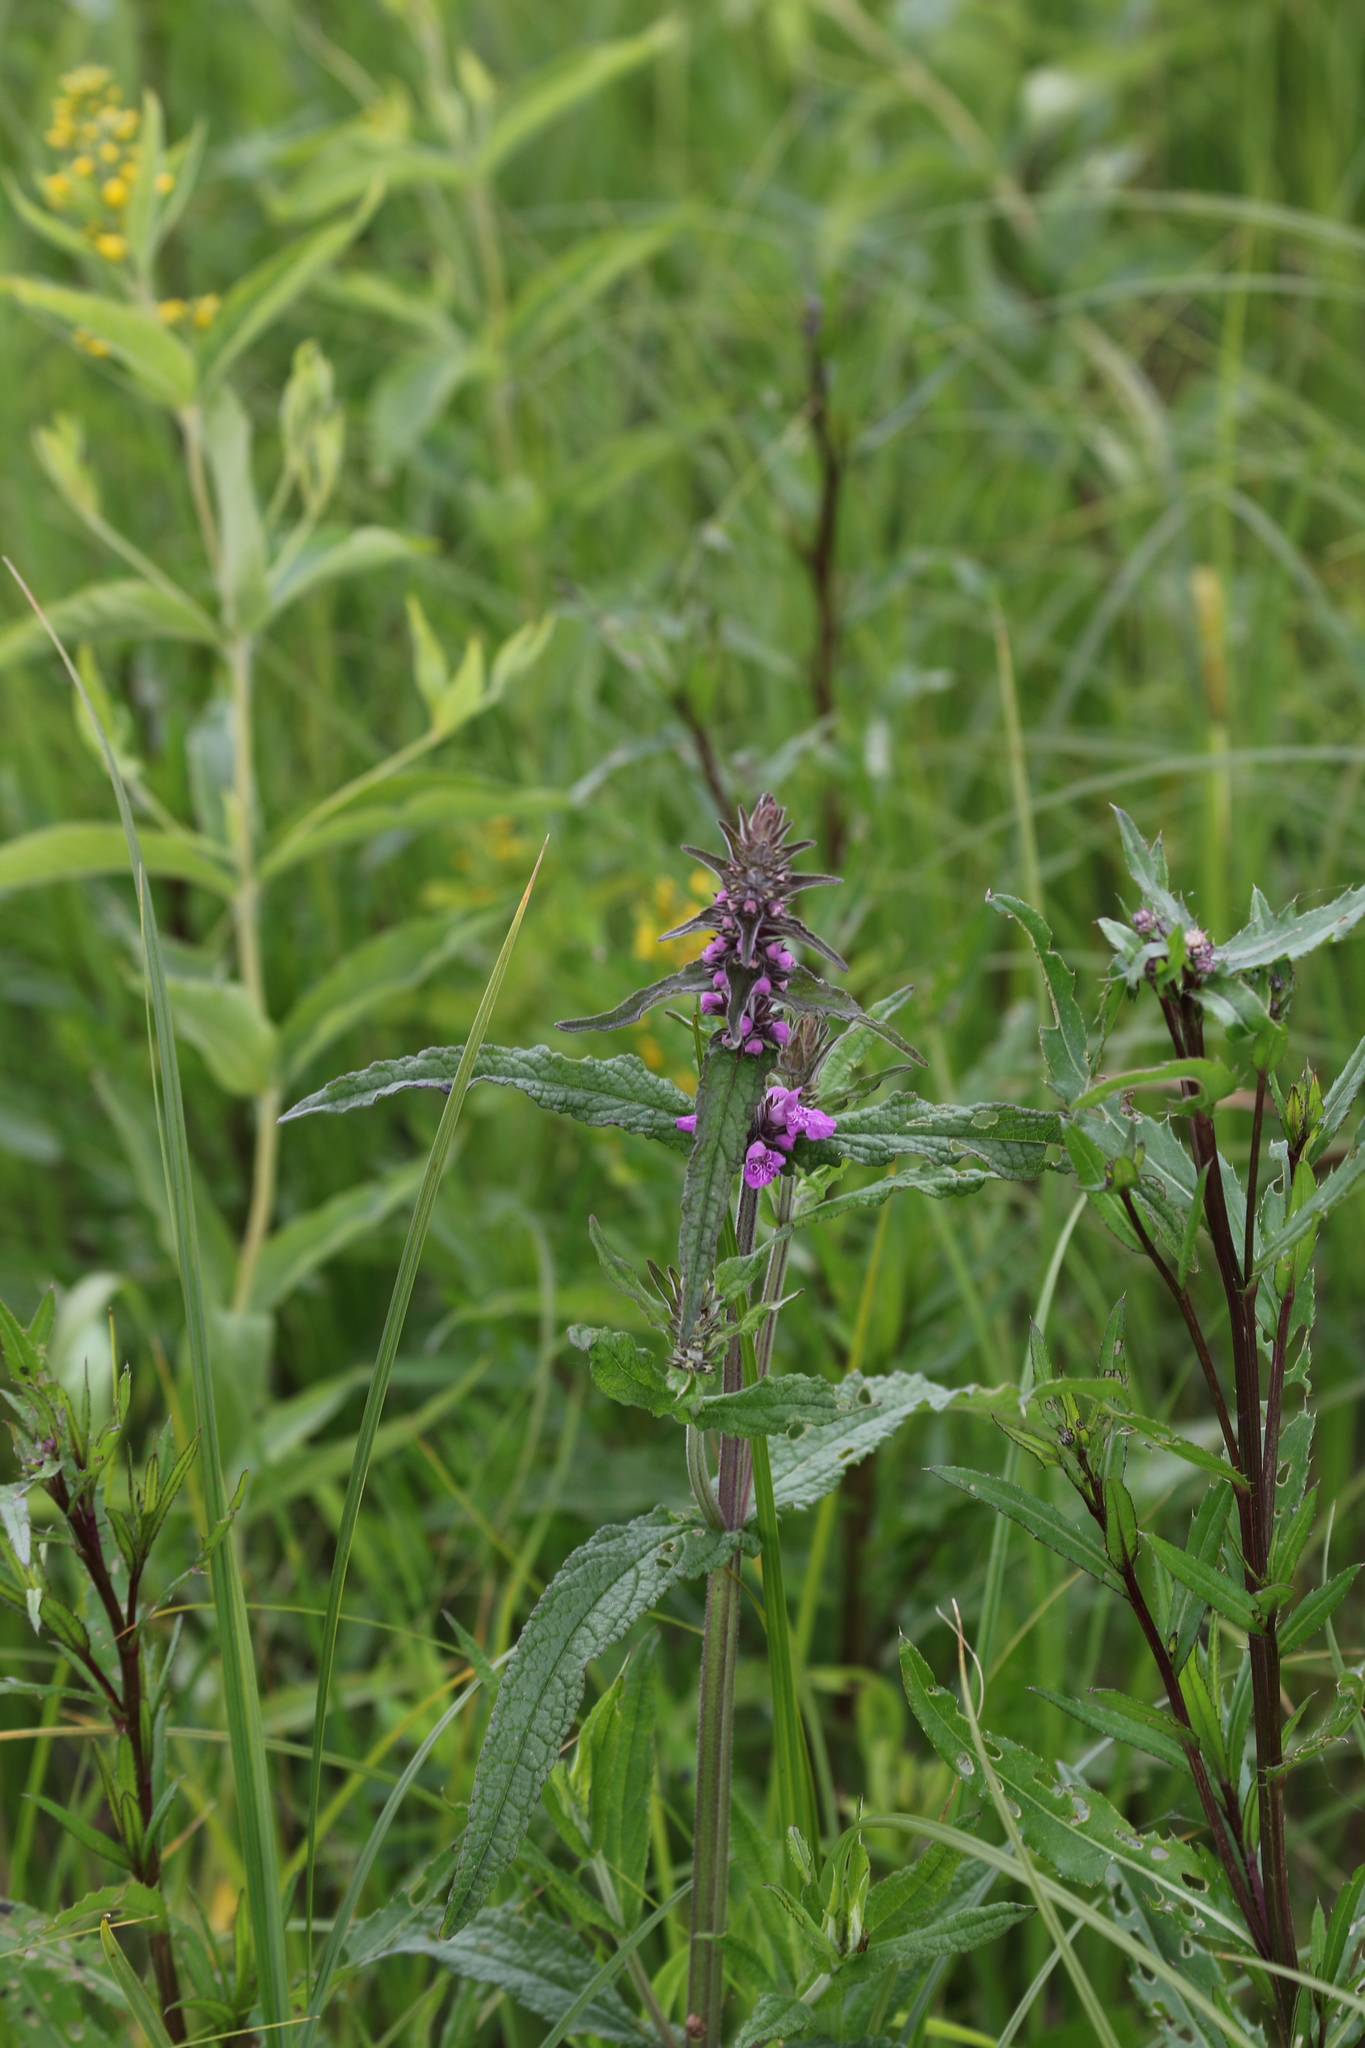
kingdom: Plantae
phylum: Tracheophyta
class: Magnoliopsida
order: Lamiales
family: Lamiaceae
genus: Stachys
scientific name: Stachys palustris
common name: Marsh woundwort
